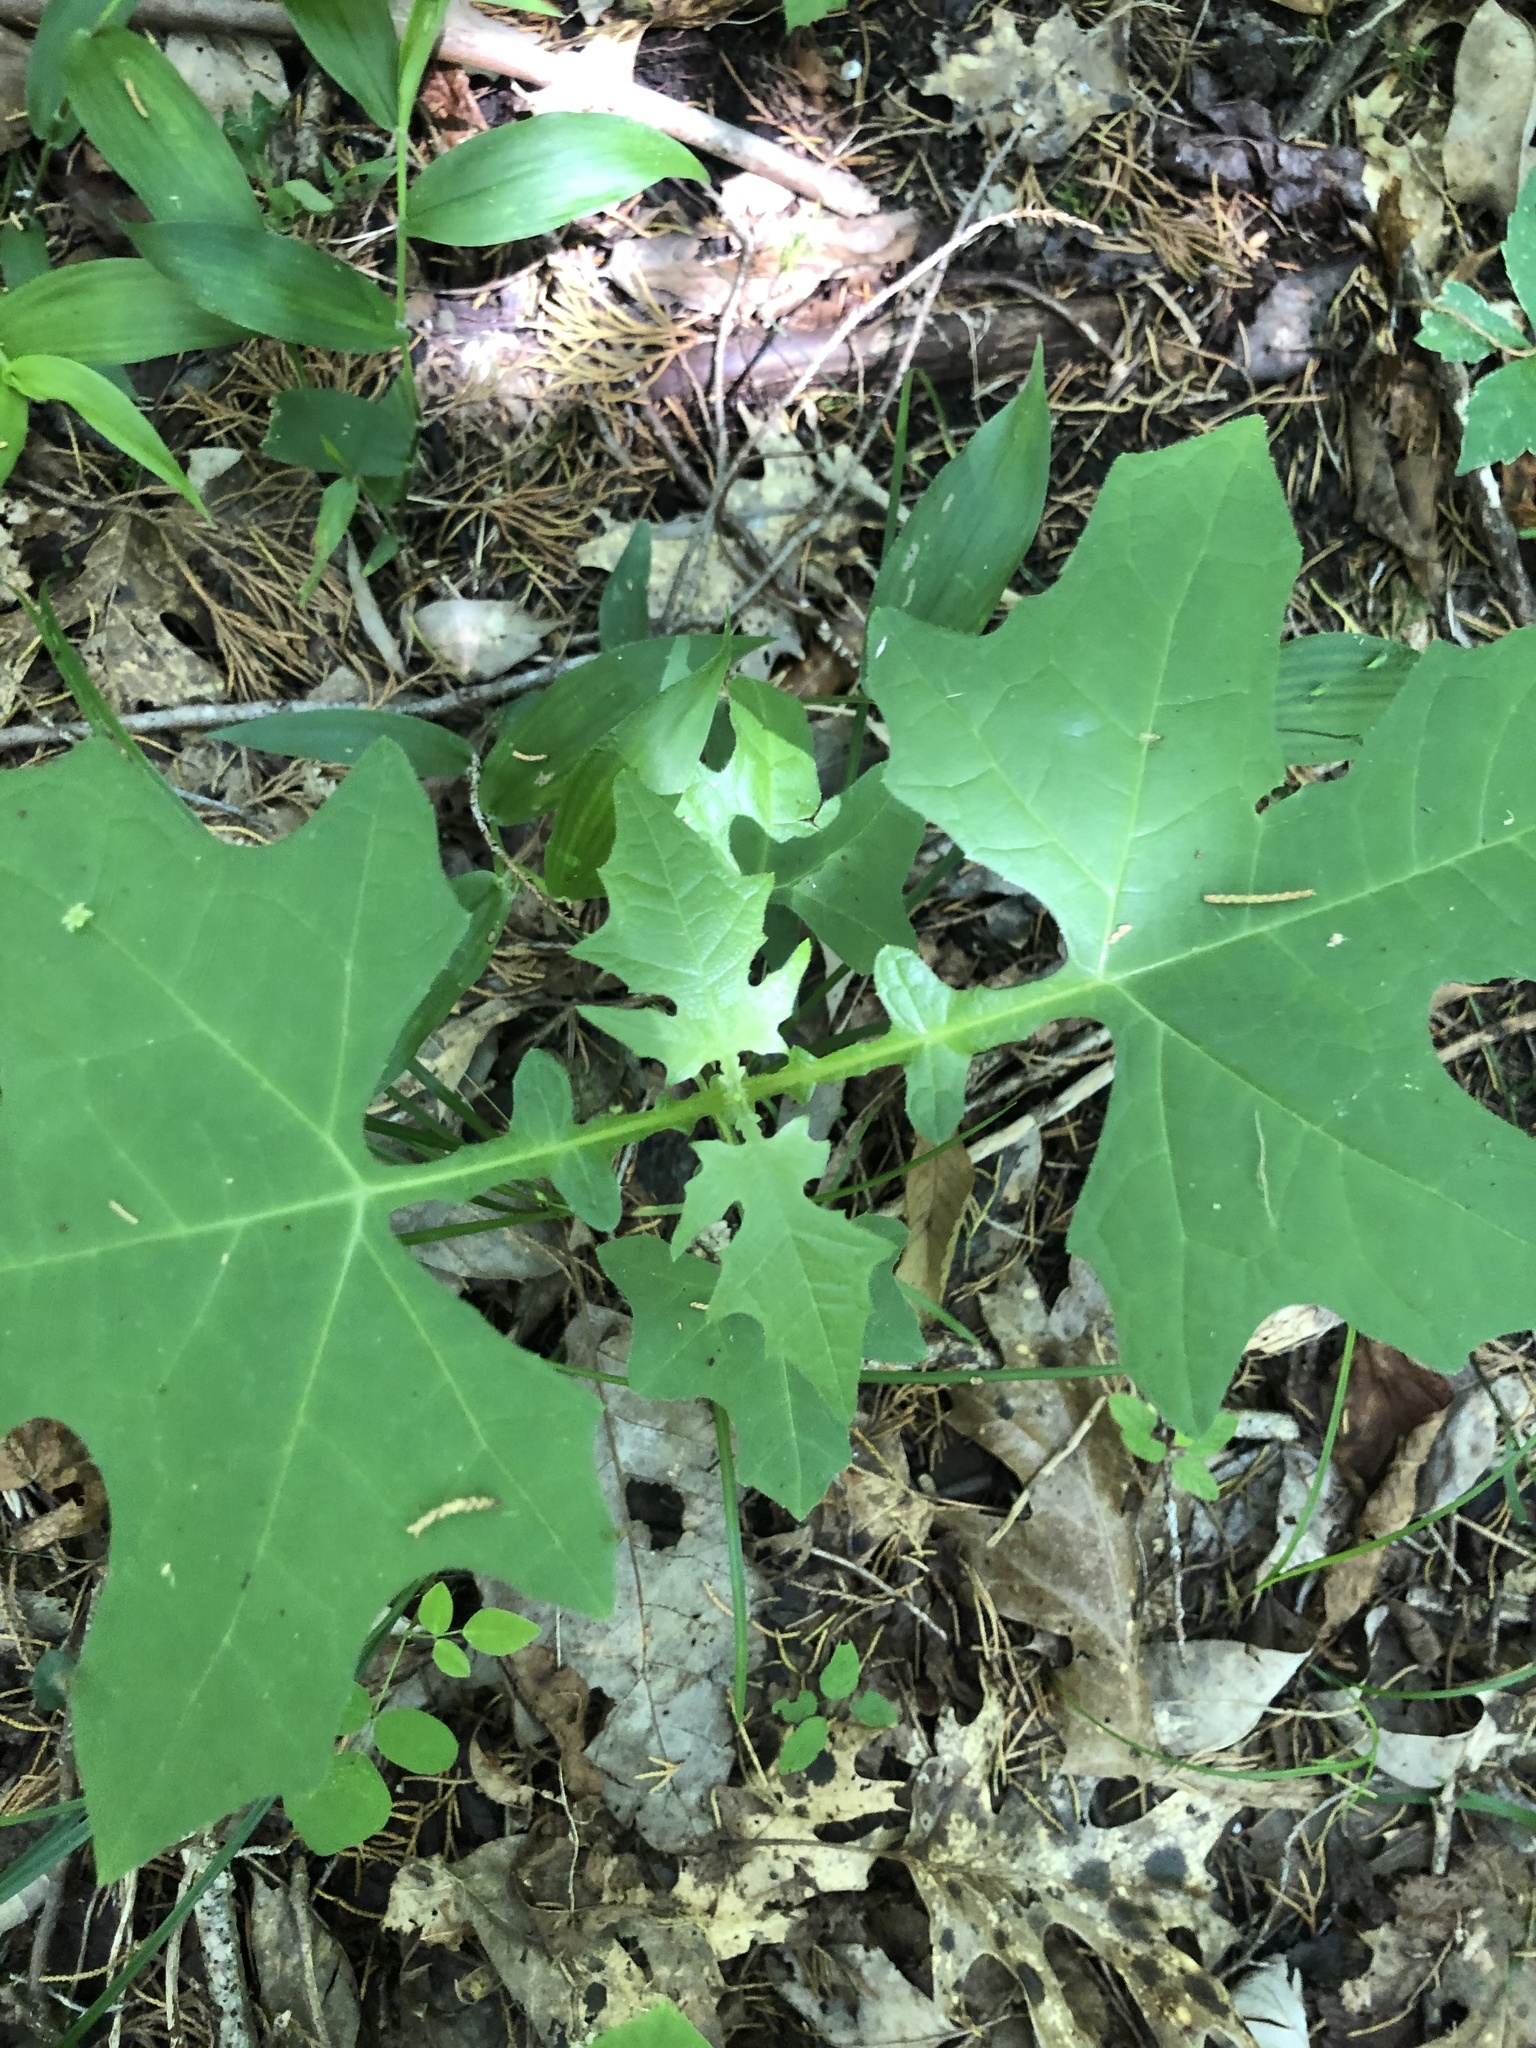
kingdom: Plantae
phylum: Tracheophyta
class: Magnoliopsida
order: Asterales
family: Asteraceae
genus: Smallanthus
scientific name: Smallanthus uvedalia
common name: Bear's-foot
